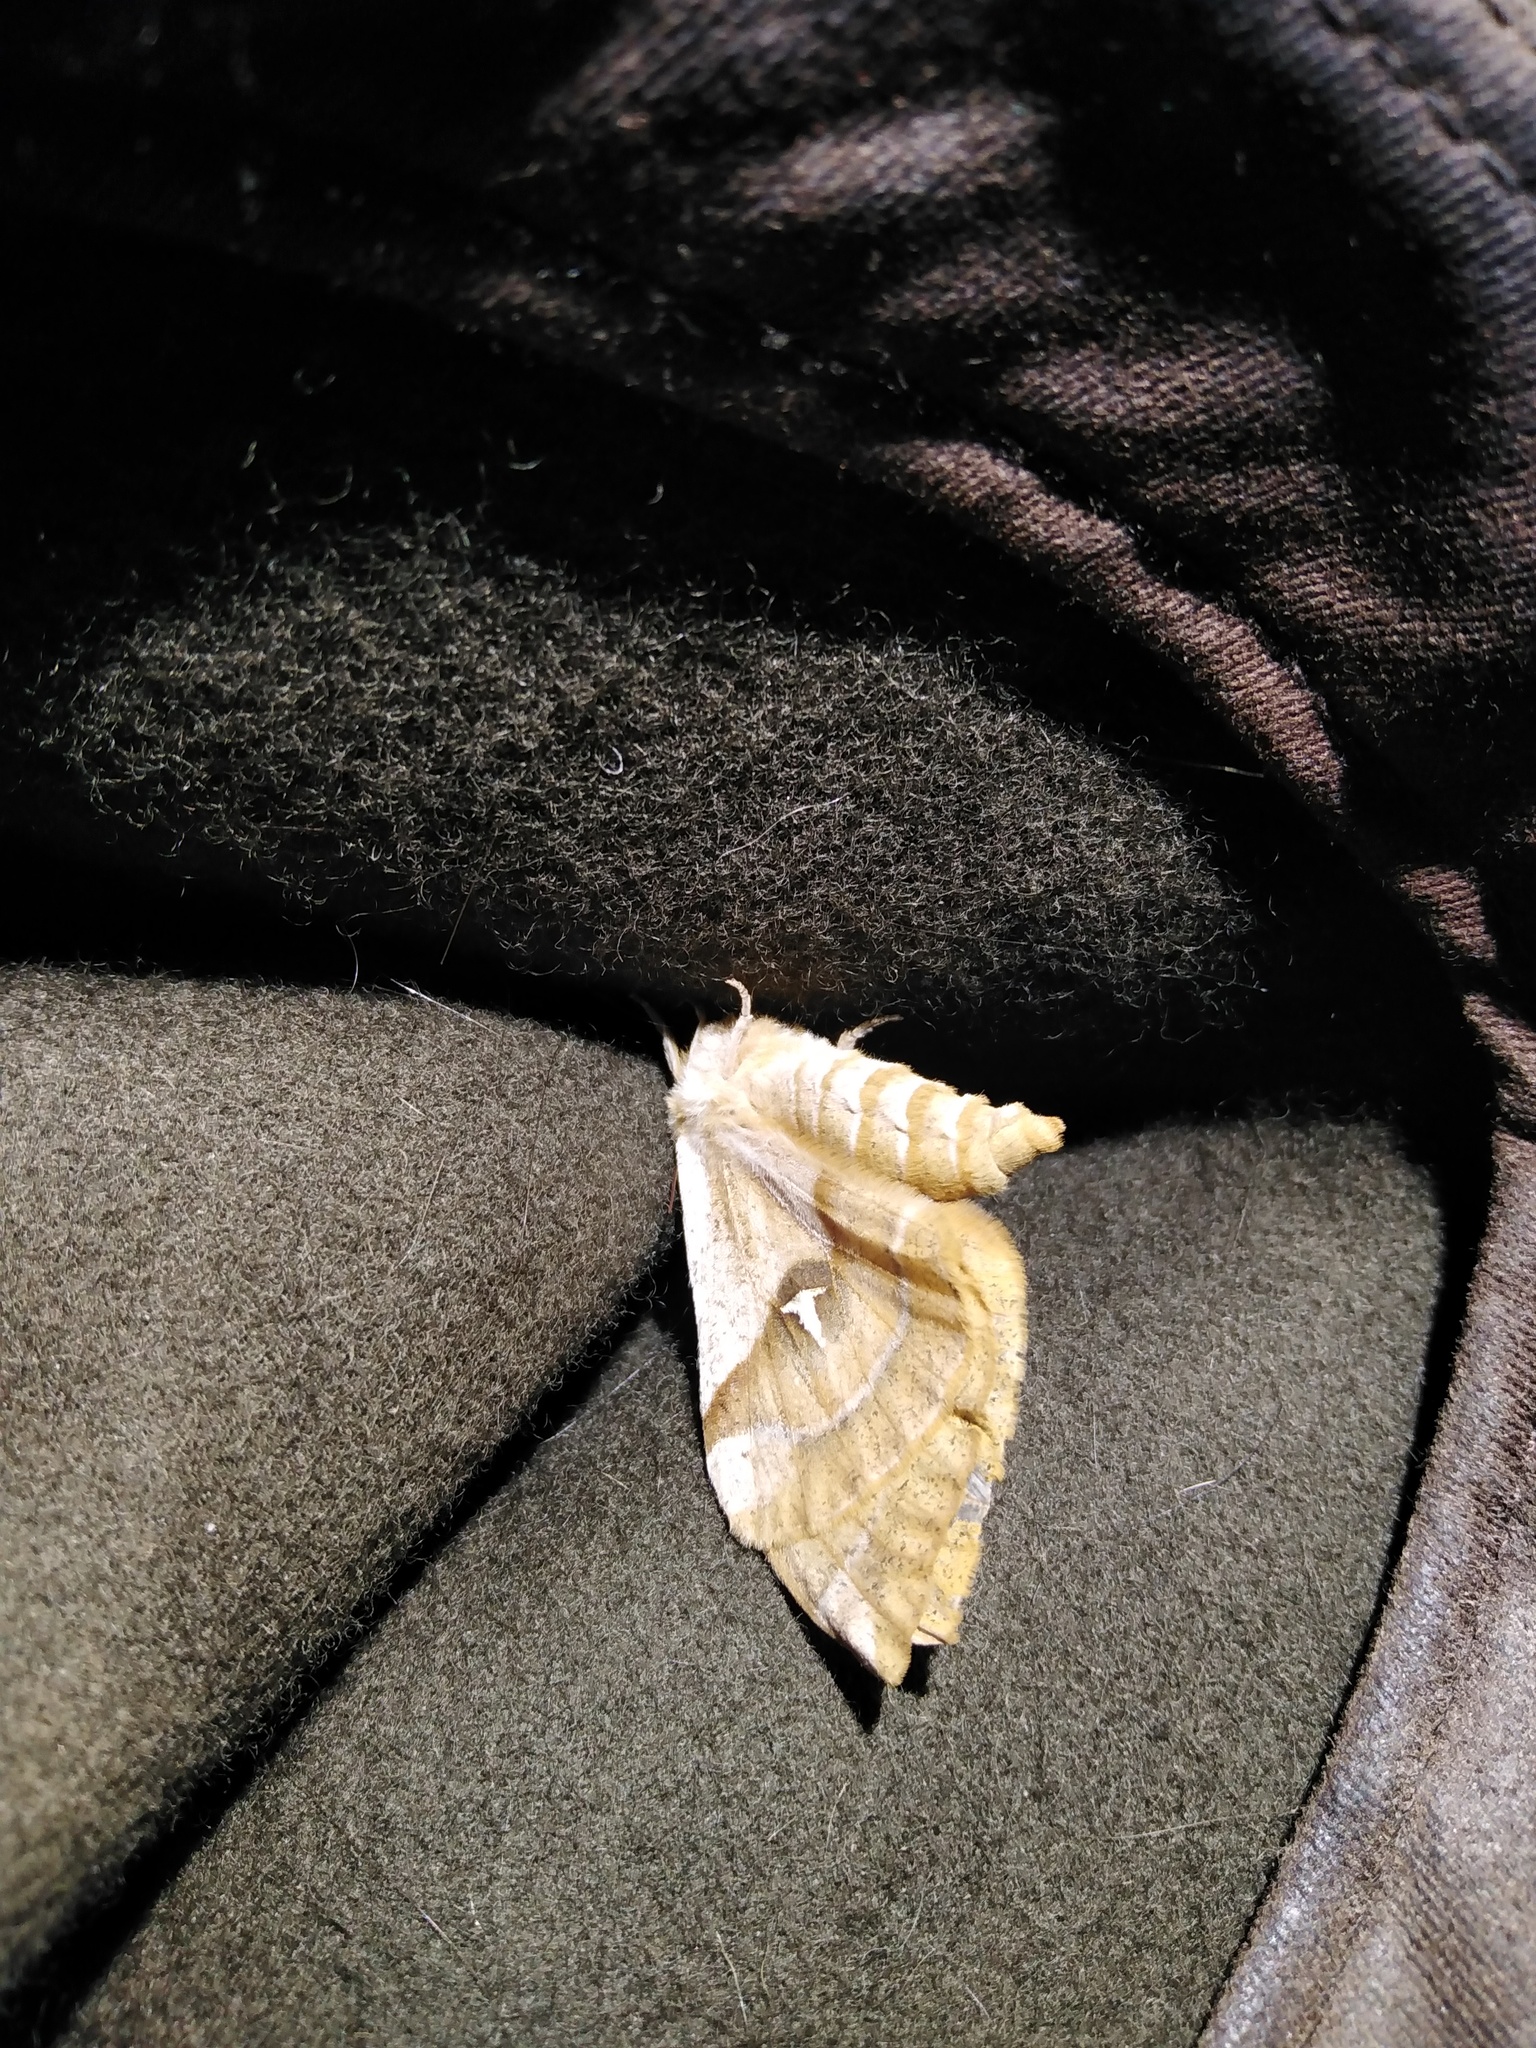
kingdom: Animalia
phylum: Arthropoda
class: Insecta
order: Lepidoptera
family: Saturniidae
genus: Aglia
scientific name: Aglia tau
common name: Tau emperor
